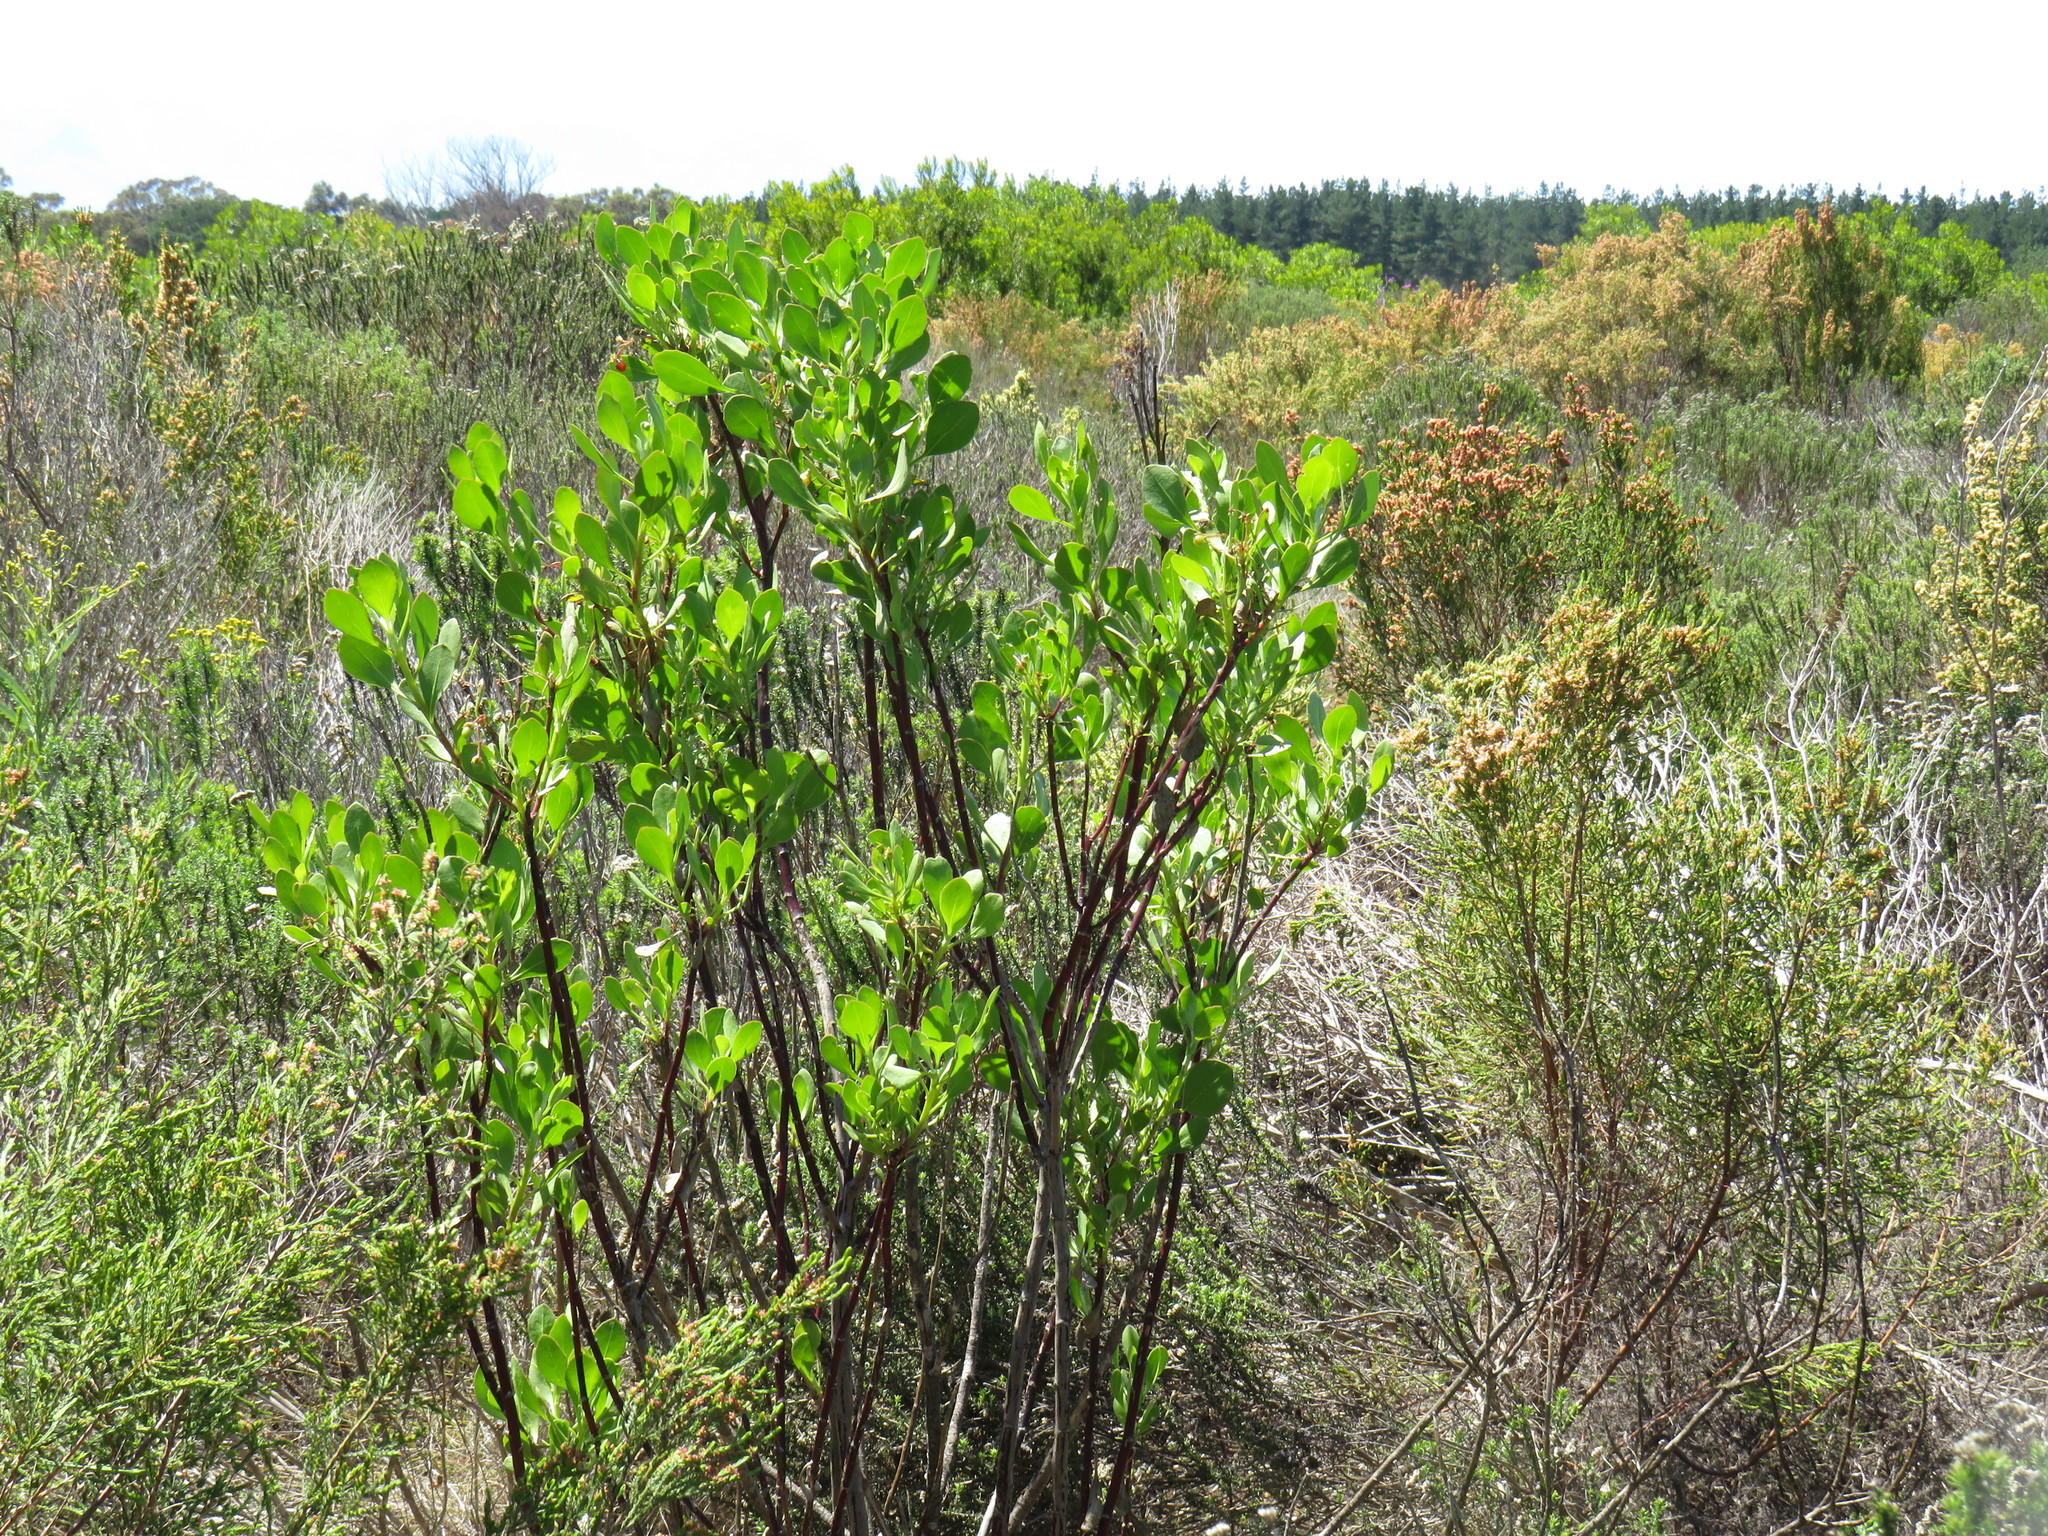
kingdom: Plantae
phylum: Tracheophyta
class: Magnoliopsida
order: Asterales
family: Asteraceae
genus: Osteospermum
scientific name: Osteospermum moniliferum
